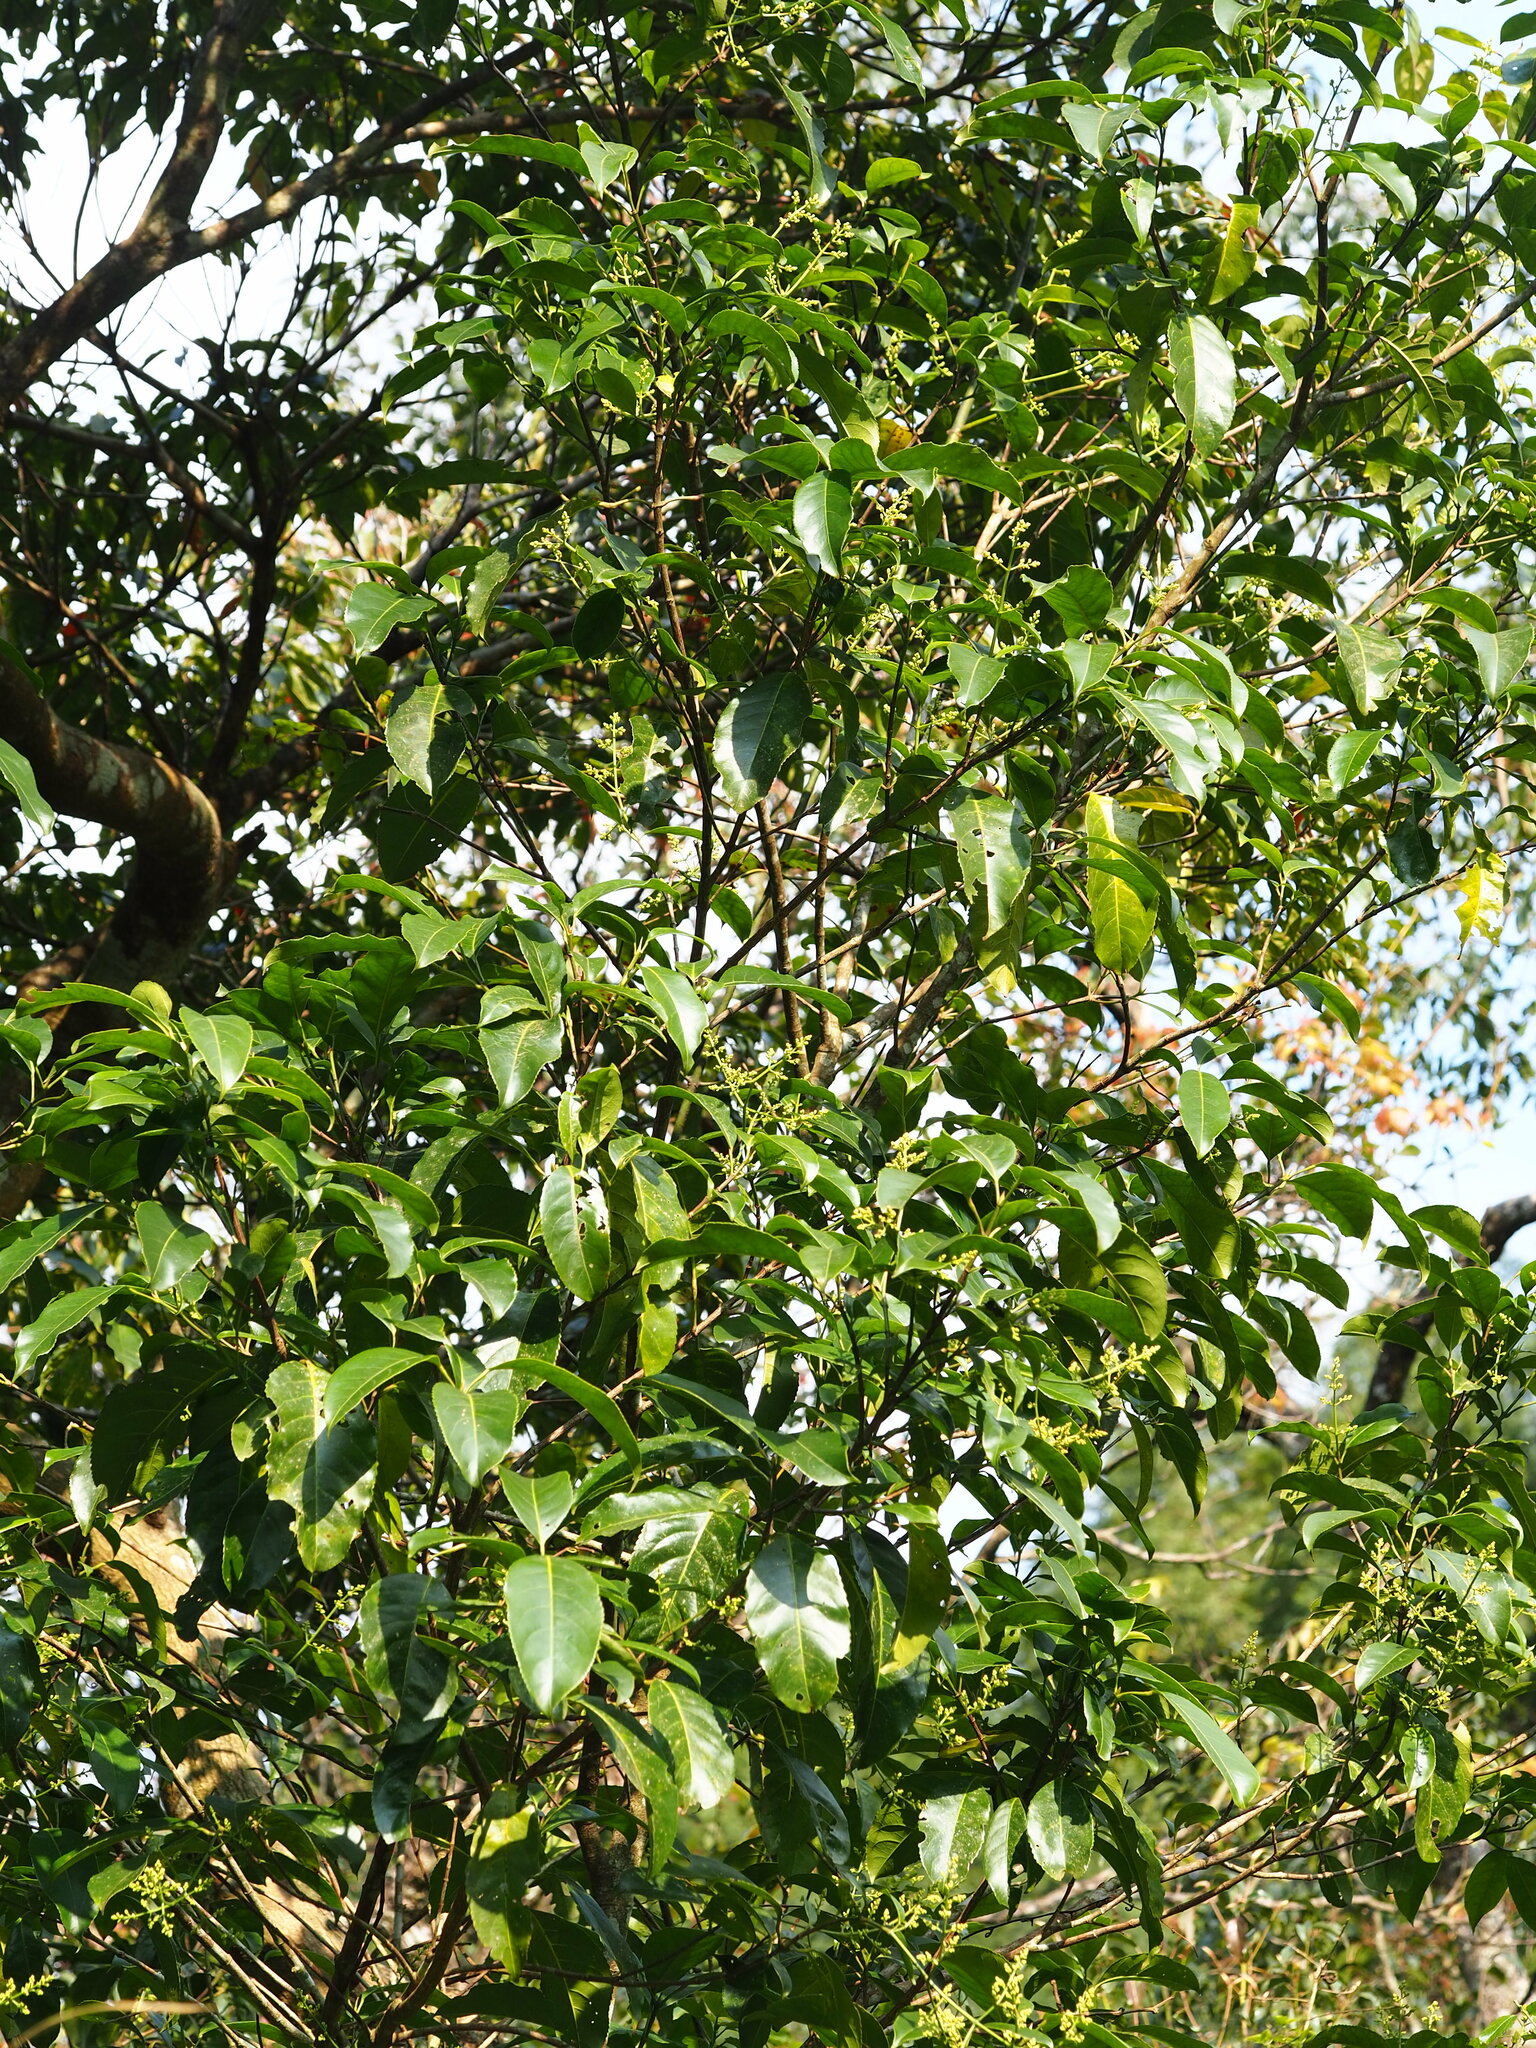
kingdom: Plantae
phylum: Tracheophyta
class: Magnoliopsida
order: Crossosomatales
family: Staphyleaceae
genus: Turpinia
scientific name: Turpinia formosana
